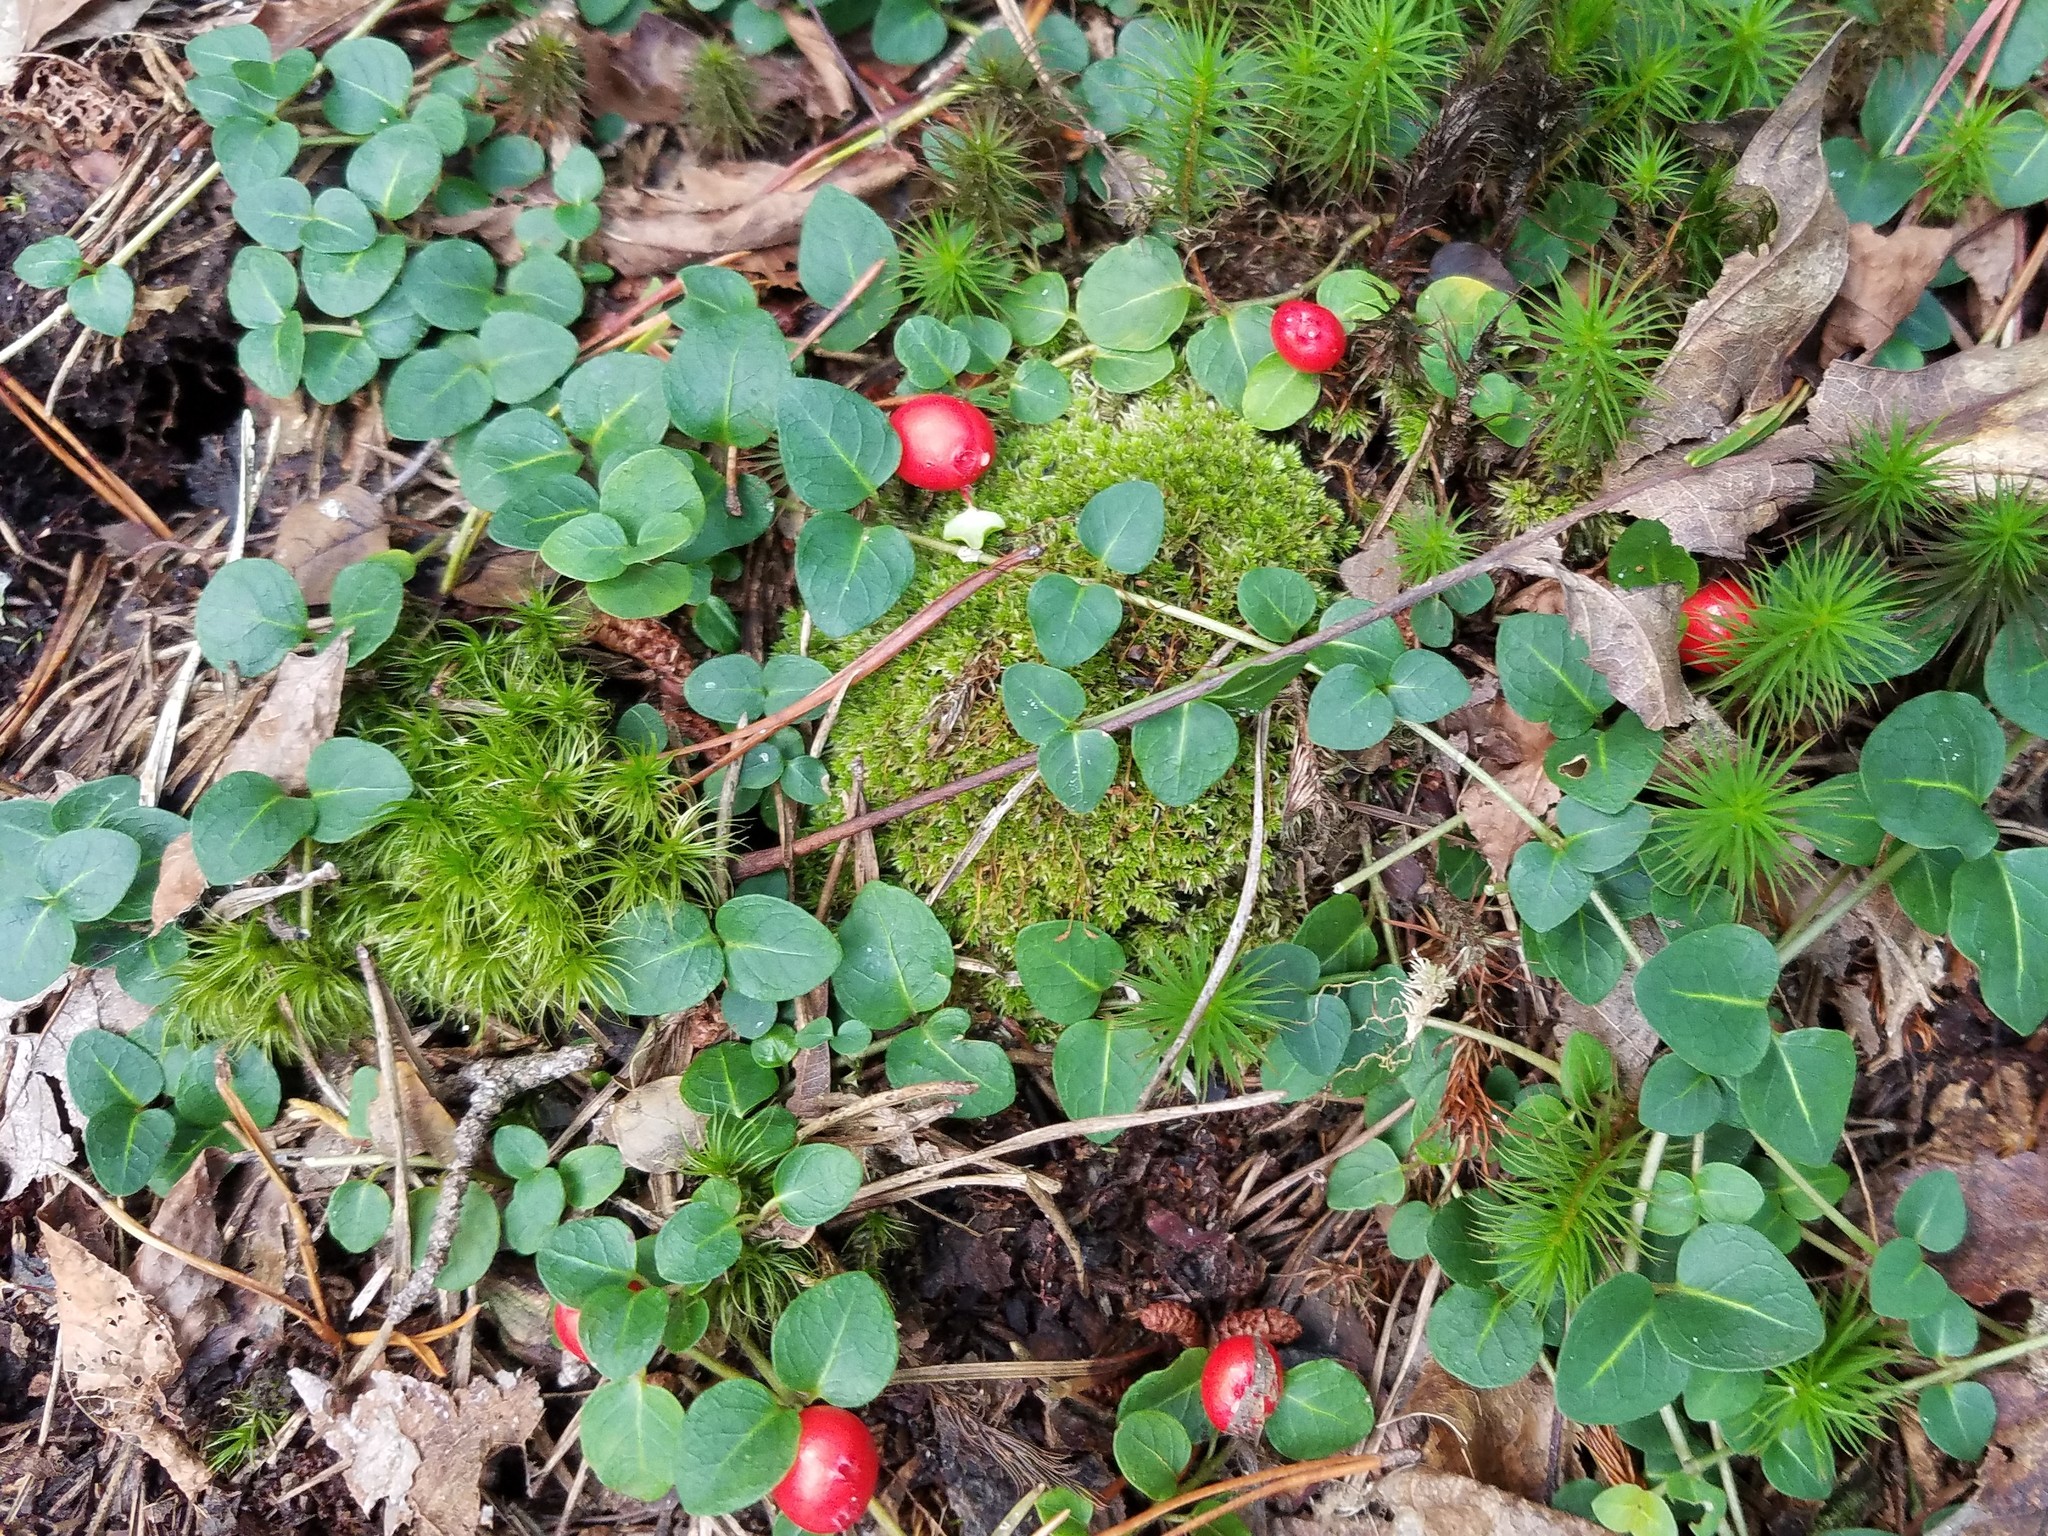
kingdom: Plantae
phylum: Tracheophyta
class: Magnoliopsida
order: Gentianales
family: Rubiaceae
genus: Mitchella
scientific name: Mitchella repens
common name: Partridge-berry
